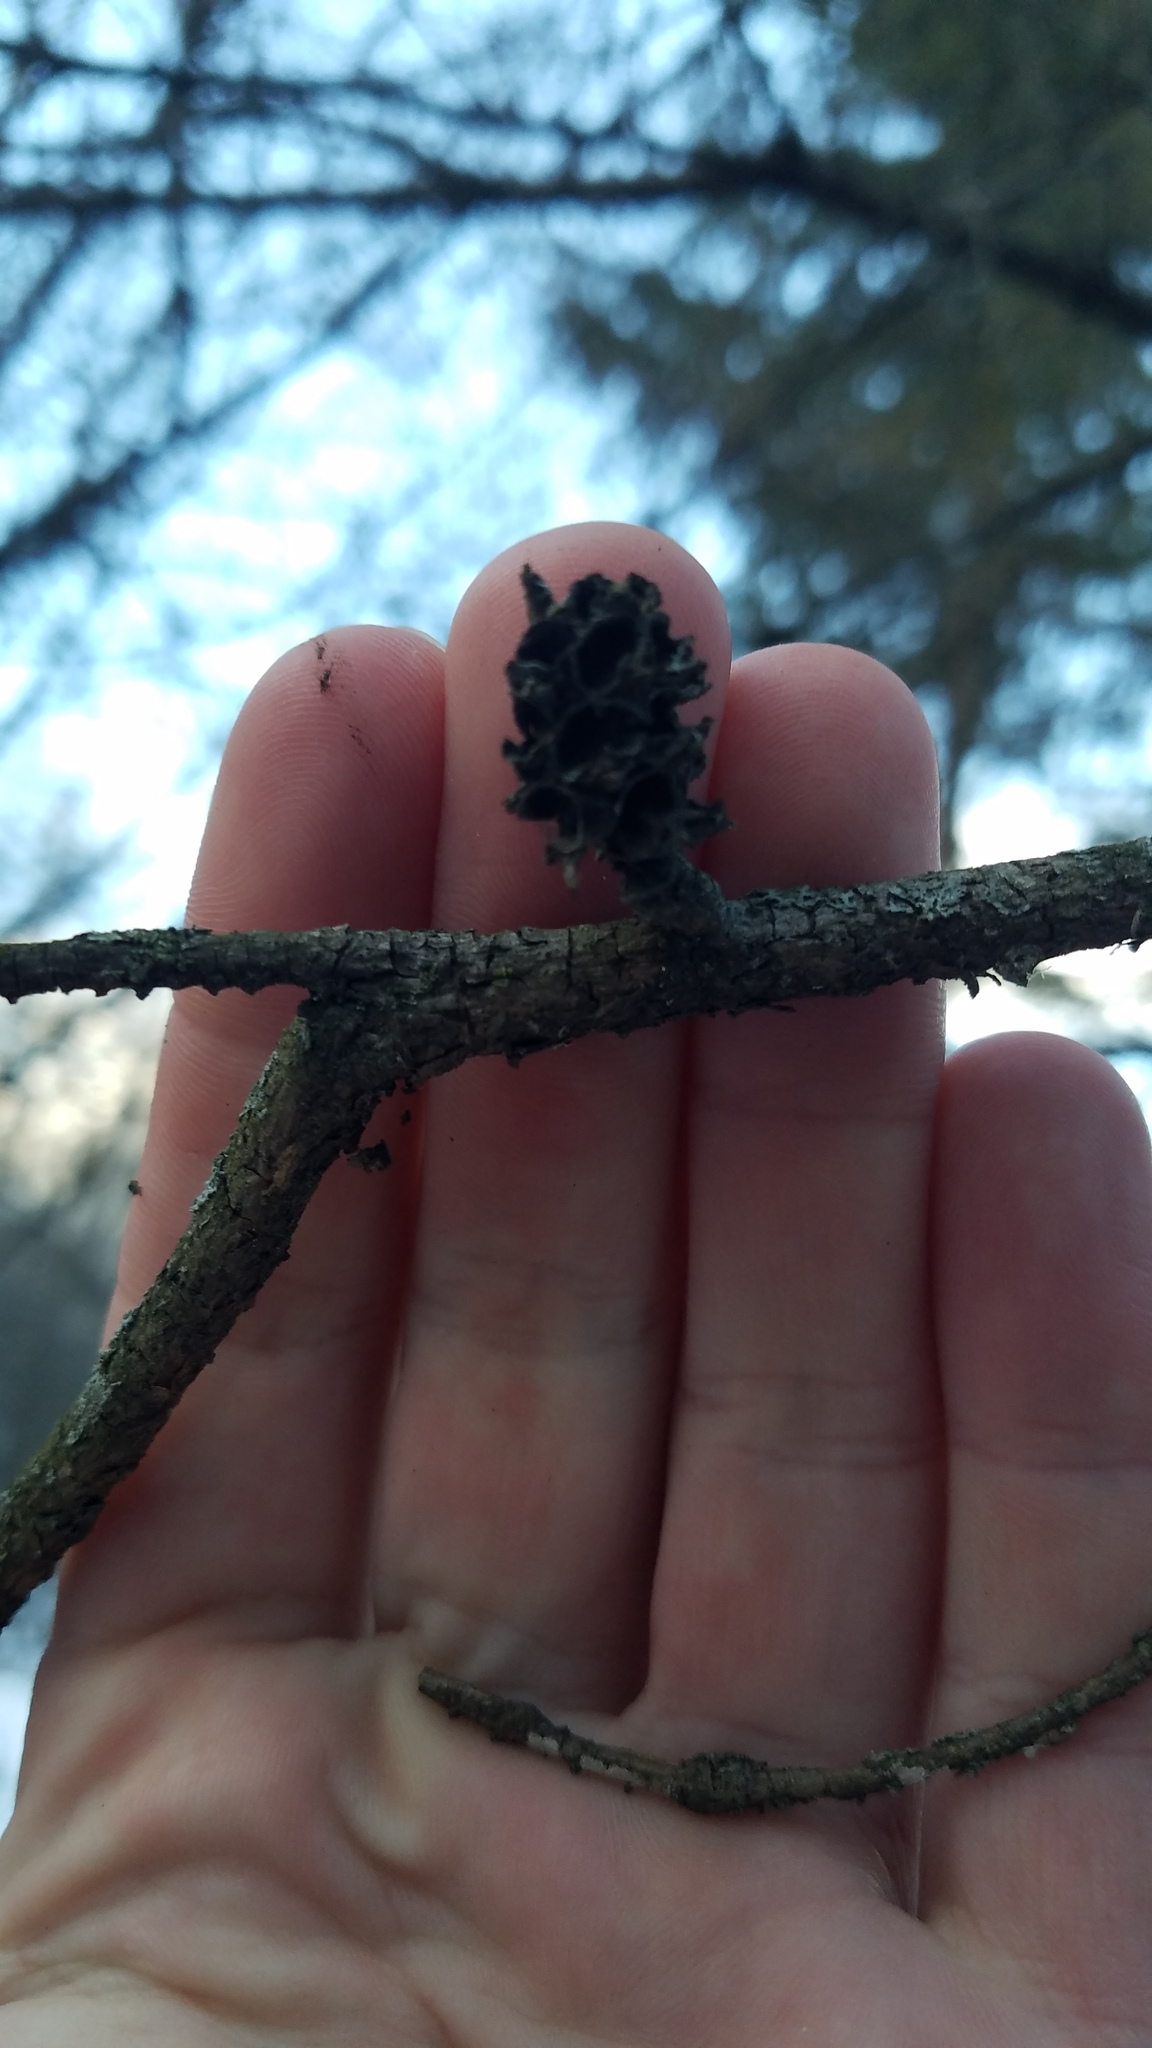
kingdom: Animalia
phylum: Arthropoda
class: Insecta
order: Hemiptera
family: Adelgidae
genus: Adelges
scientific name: Adelges abietis
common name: Eastern spruce gall adelgid
